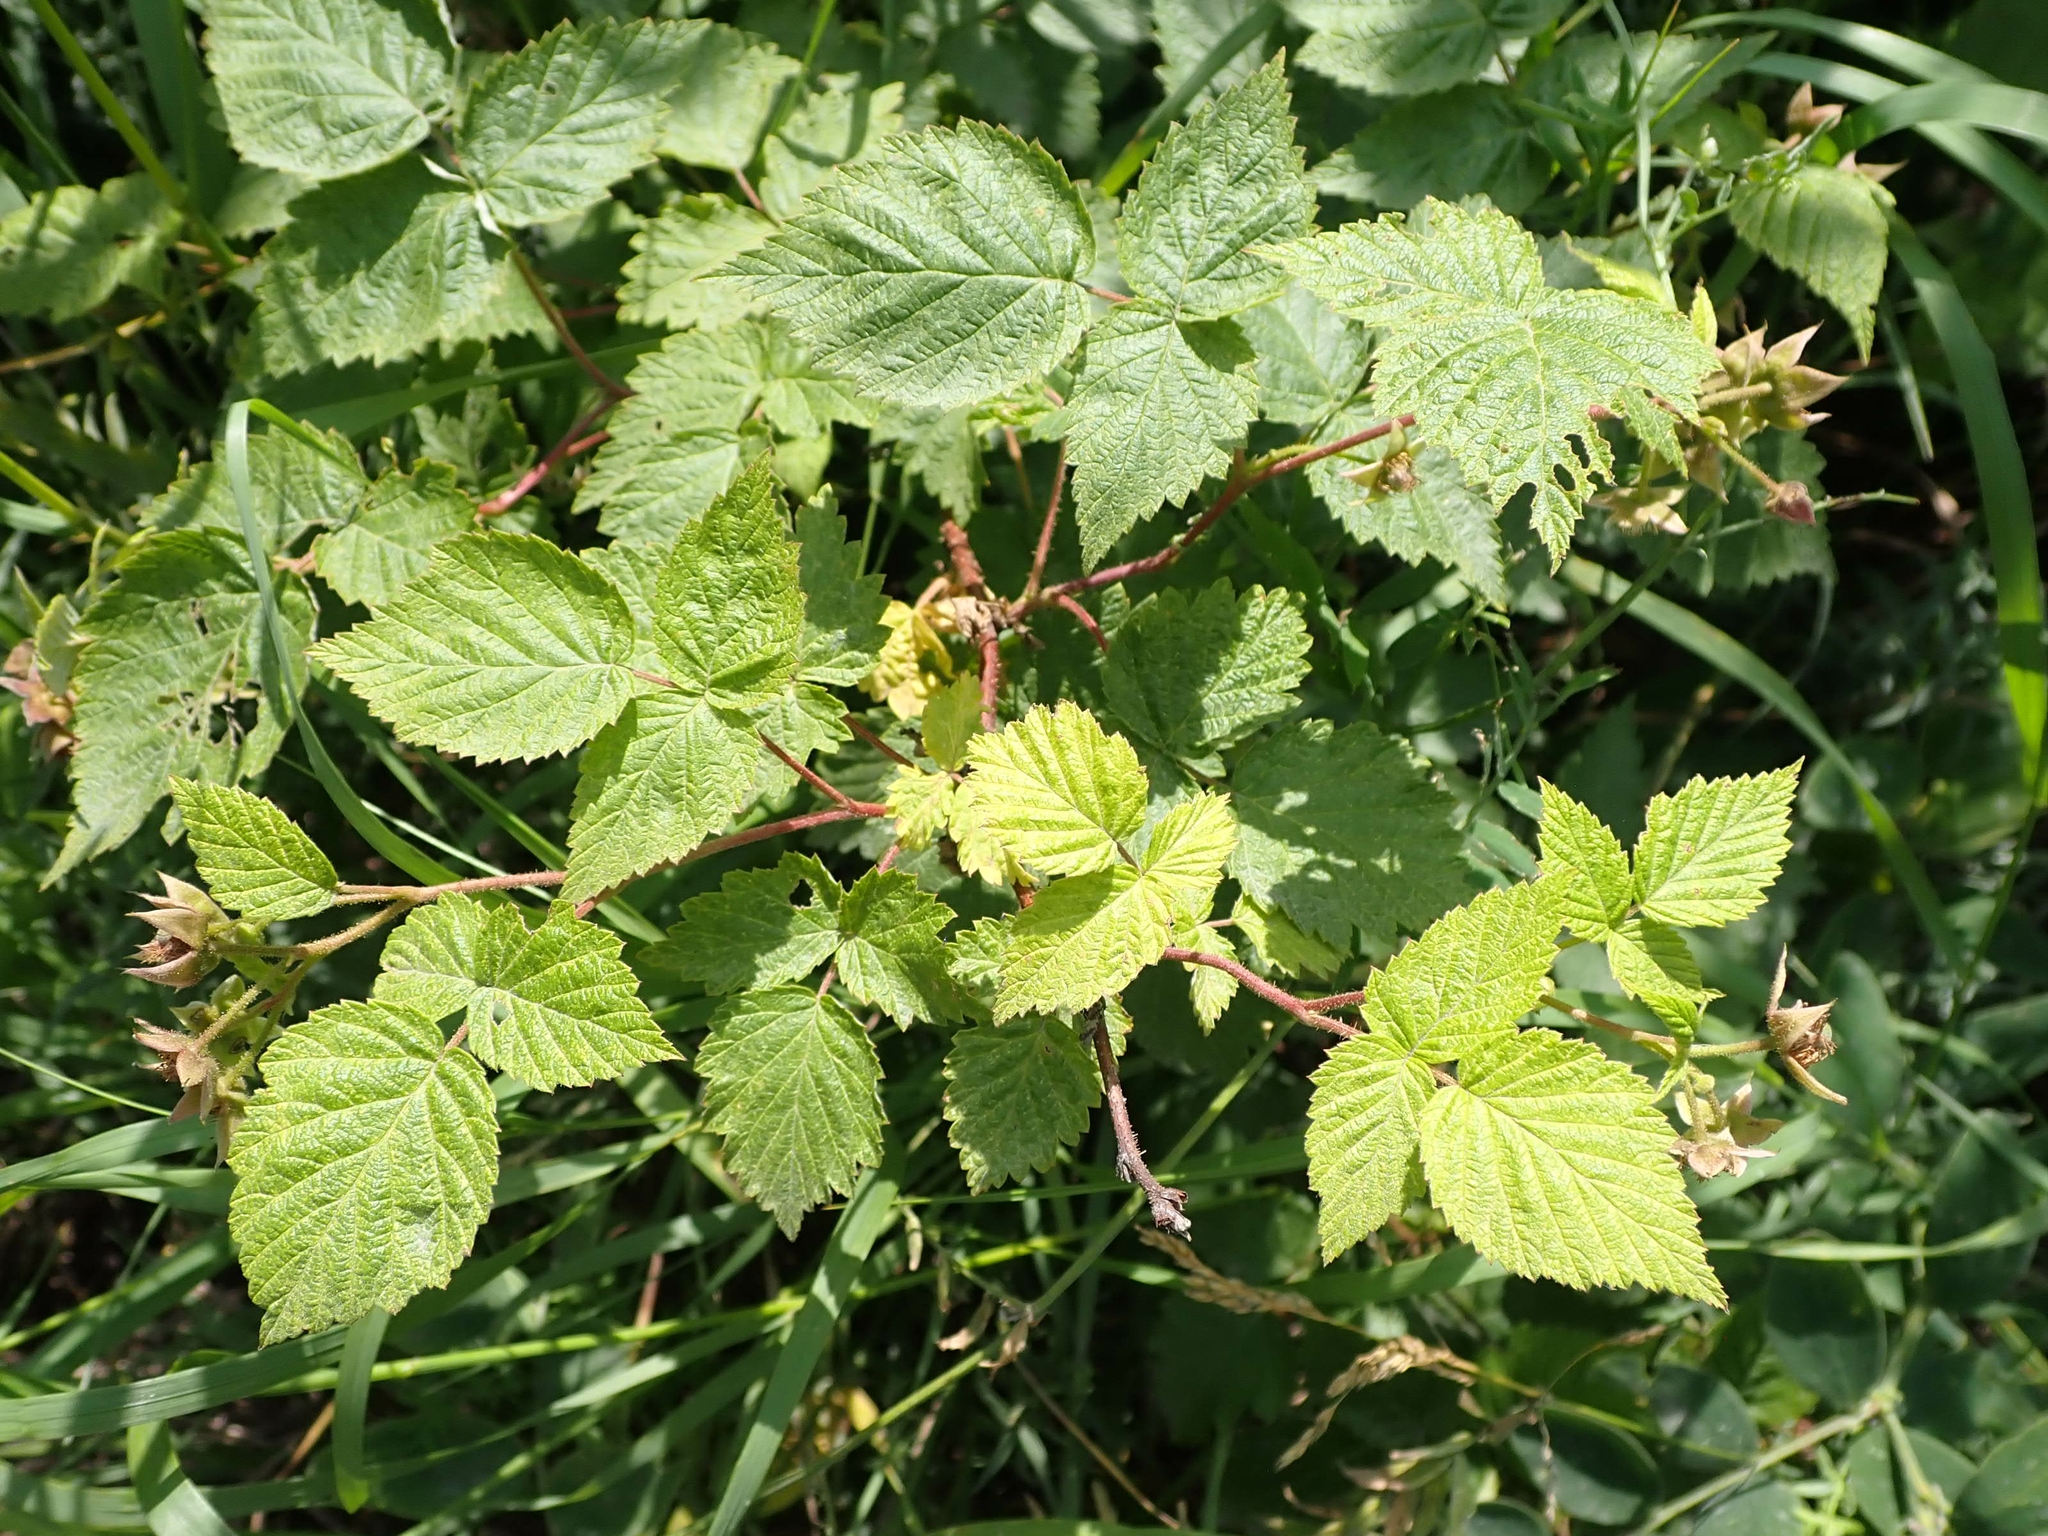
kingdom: Plantae
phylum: Tracheophyta
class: Magnoliopsida
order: Rosales
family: Rosaceae
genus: Rubus
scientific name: Rubus idaeus
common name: Raspberry
